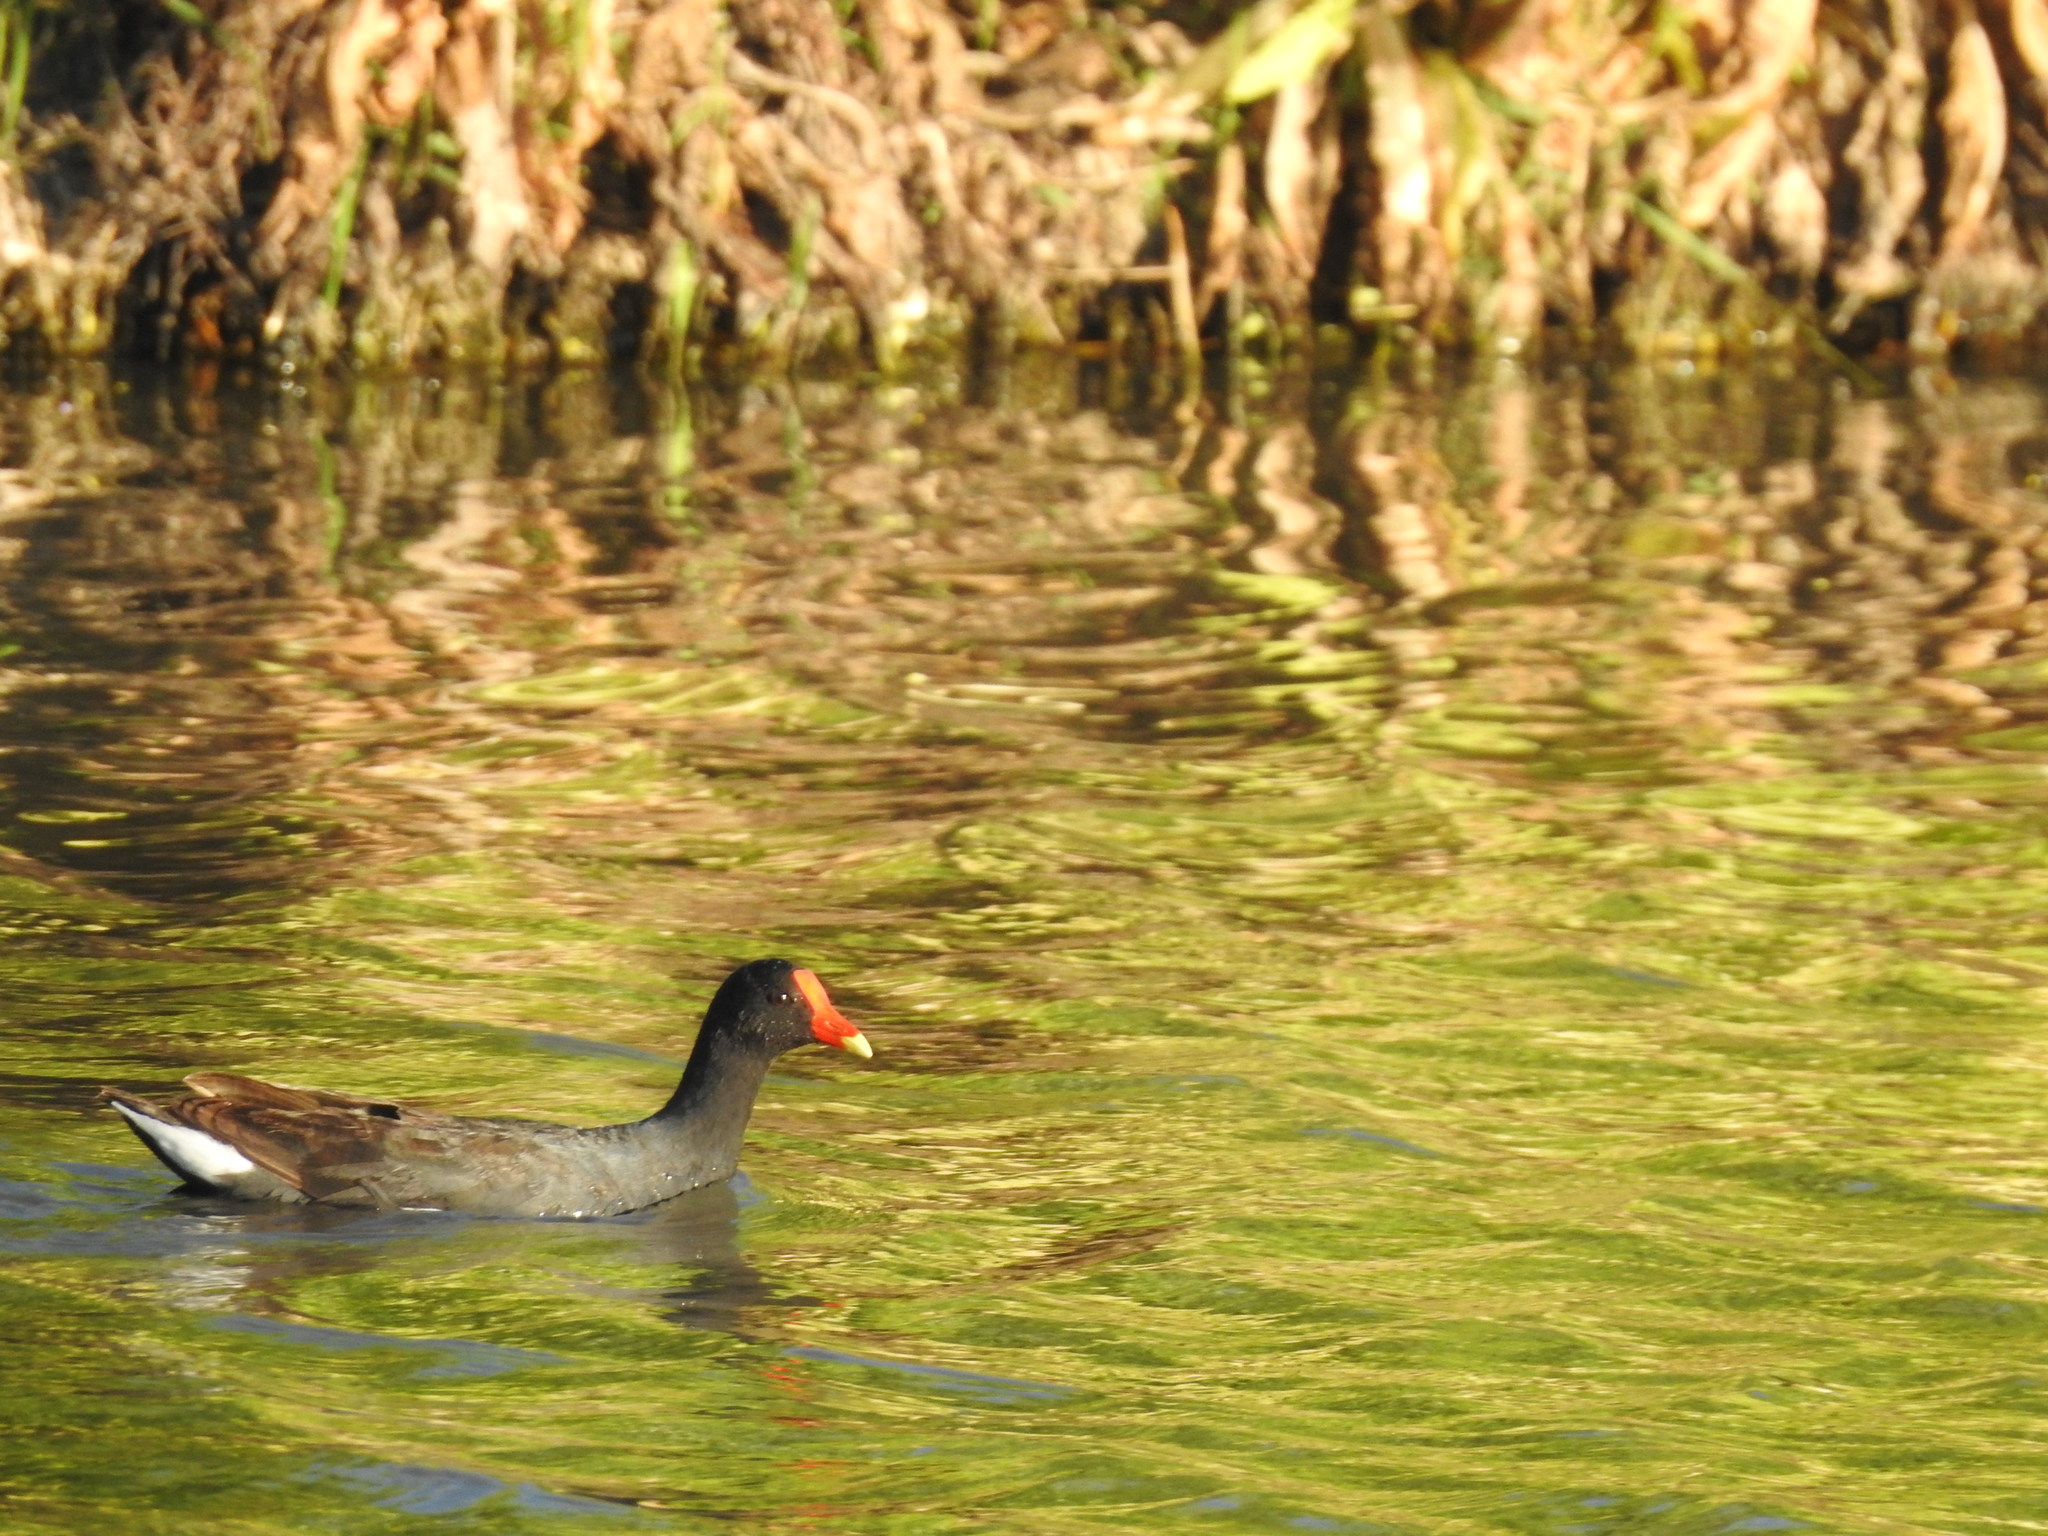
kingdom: Animalia
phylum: Chordata
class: Aves
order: Gruiformes
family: Rallidae
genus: Gallinula
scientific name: Gallinula chloropus
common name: Common moorhen
